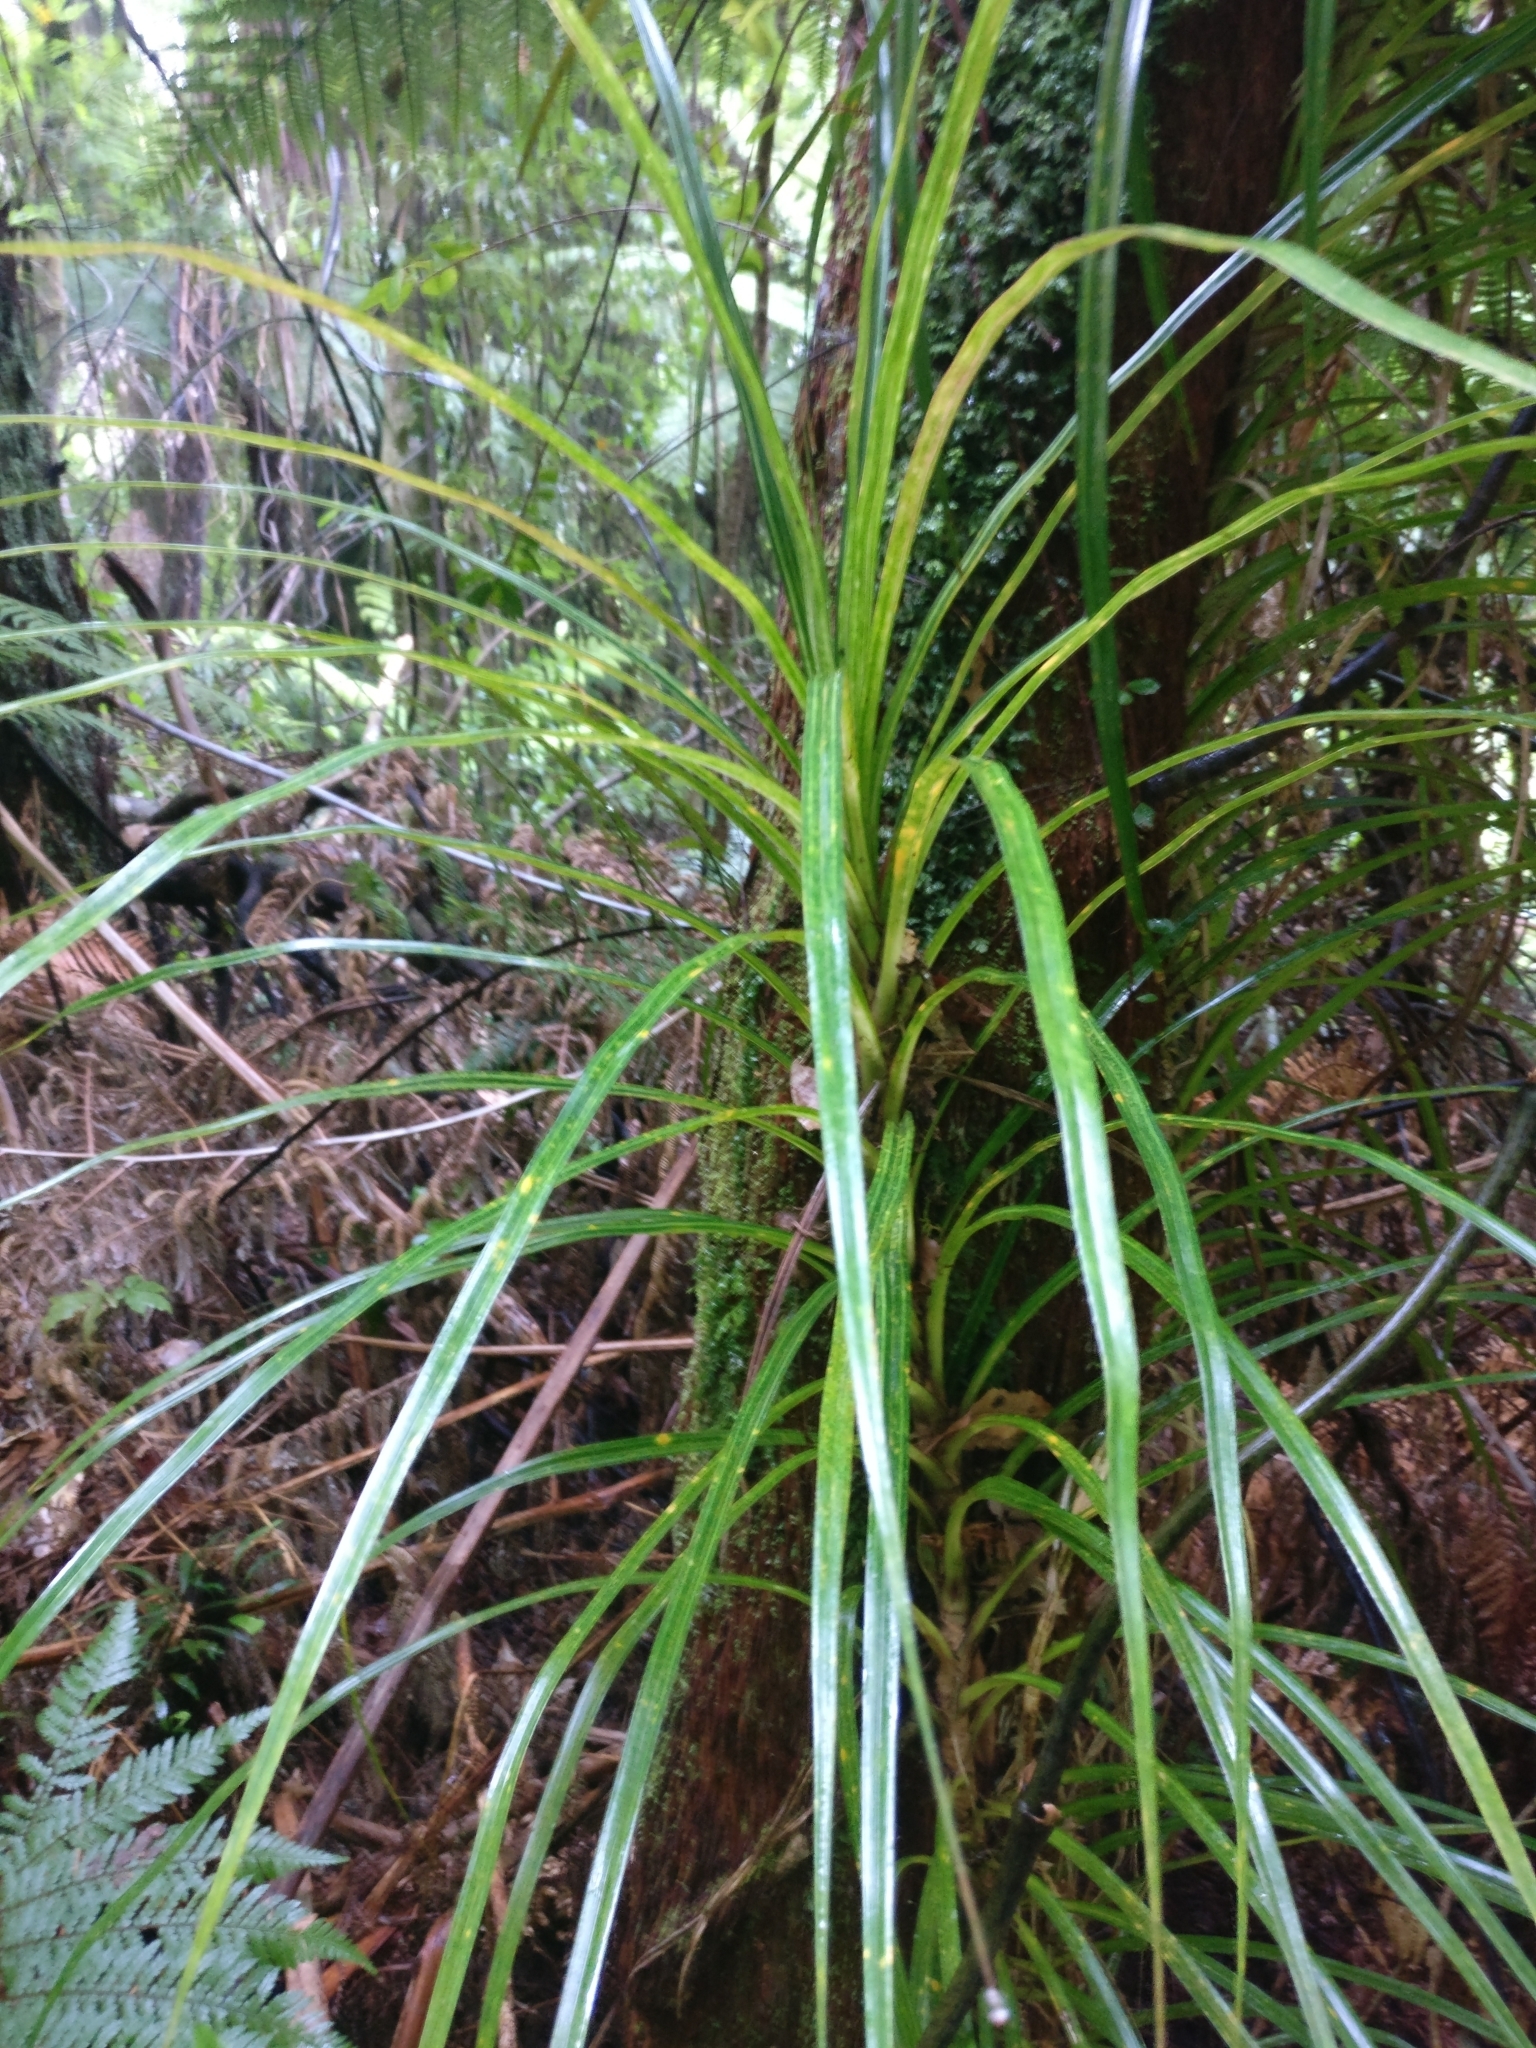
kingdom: Plantae
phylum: Tracheophyta
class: Liliopsida
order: Pandanales
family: Pandanaceae
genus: Freycinetia
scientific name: Freycinetia banksii
